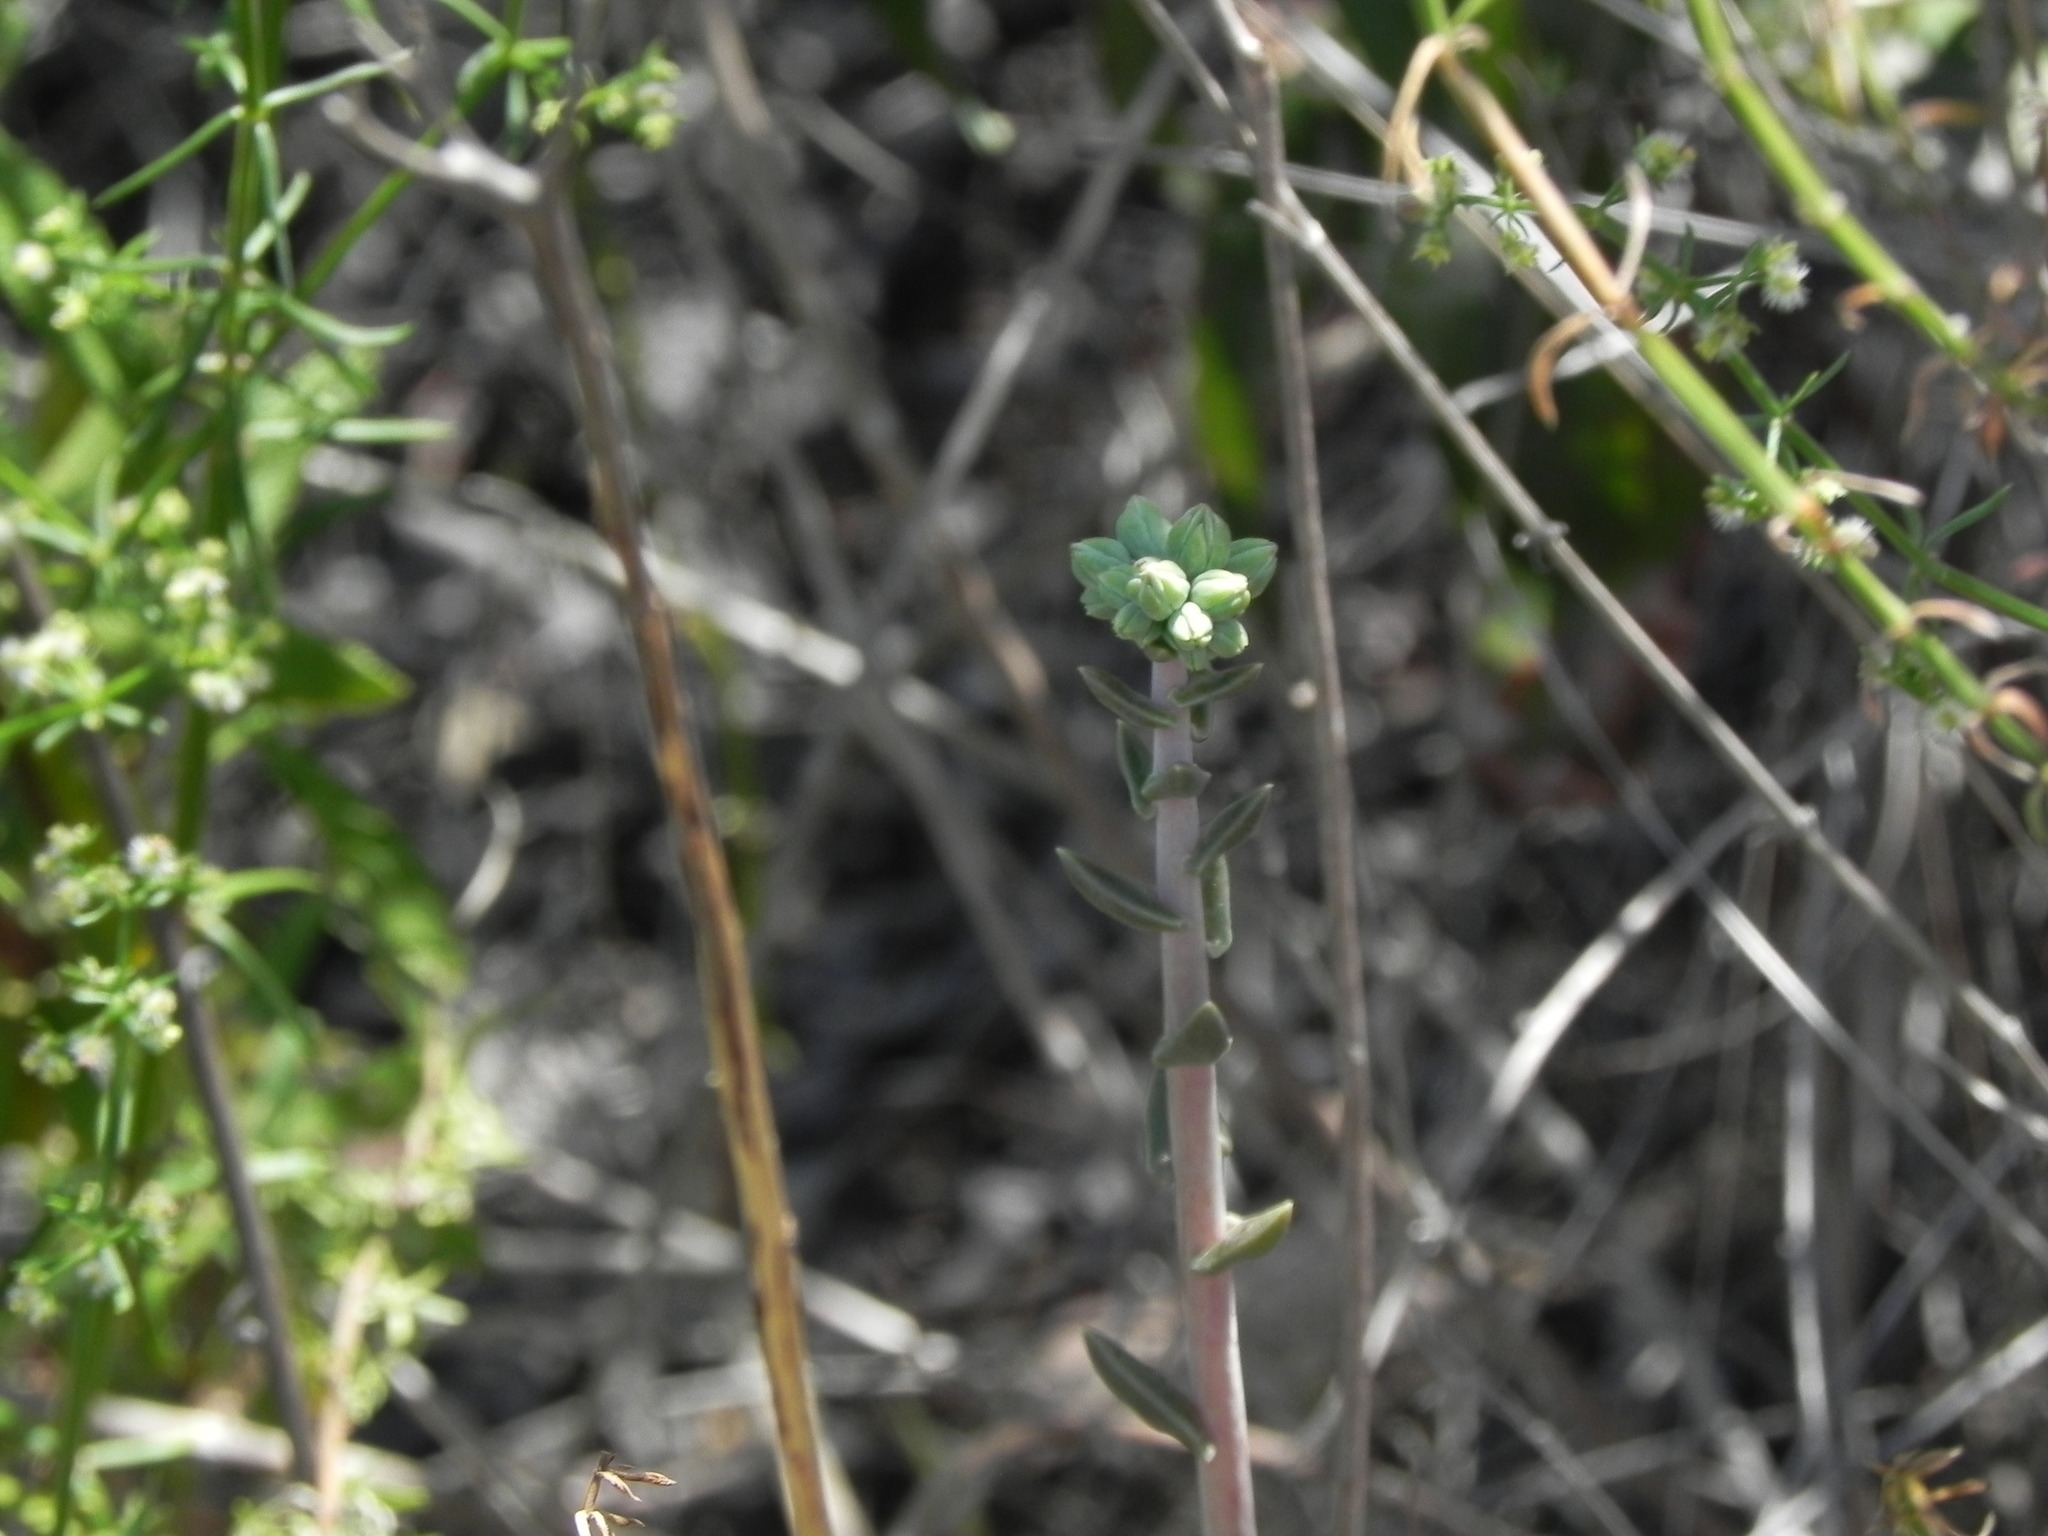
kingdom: Plantae
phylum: Tracheophyta
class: Magnoliopsida
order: Saxifragales
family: Crassulaceae
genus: Dudleya
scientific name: Dudleya lanceolata
